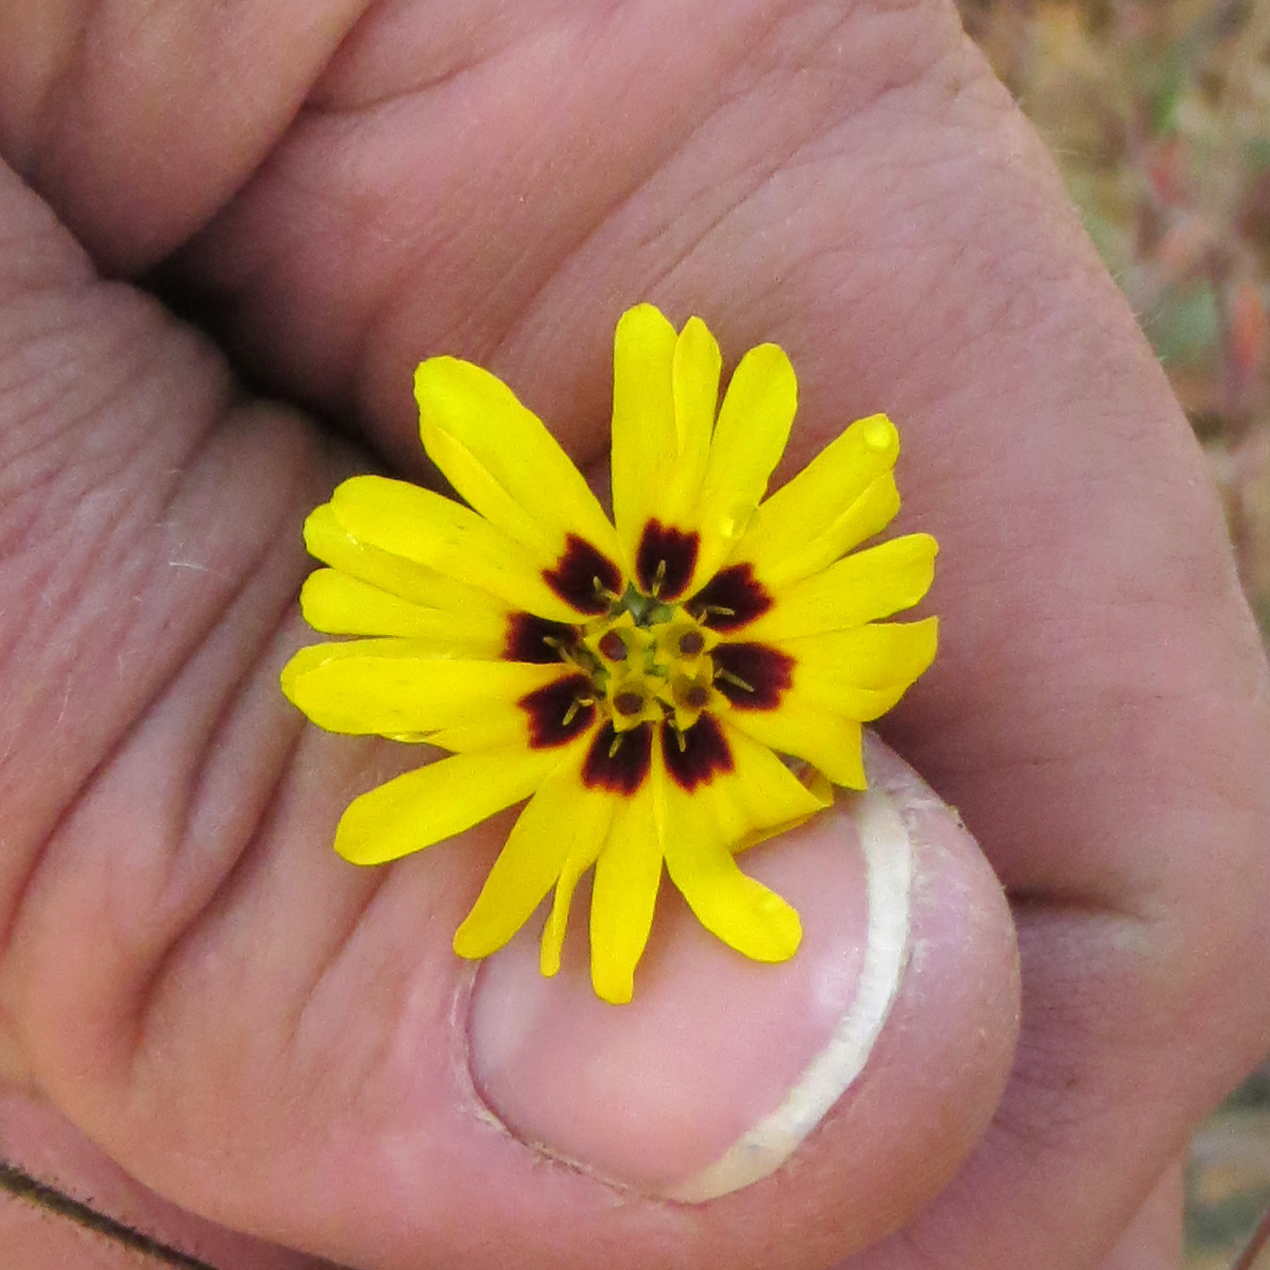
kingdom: Plantae
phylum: Tracheophyta
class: Magnoliopsida
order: Asterales
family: Asteraceae
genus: Madia
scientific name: Madia elegans
